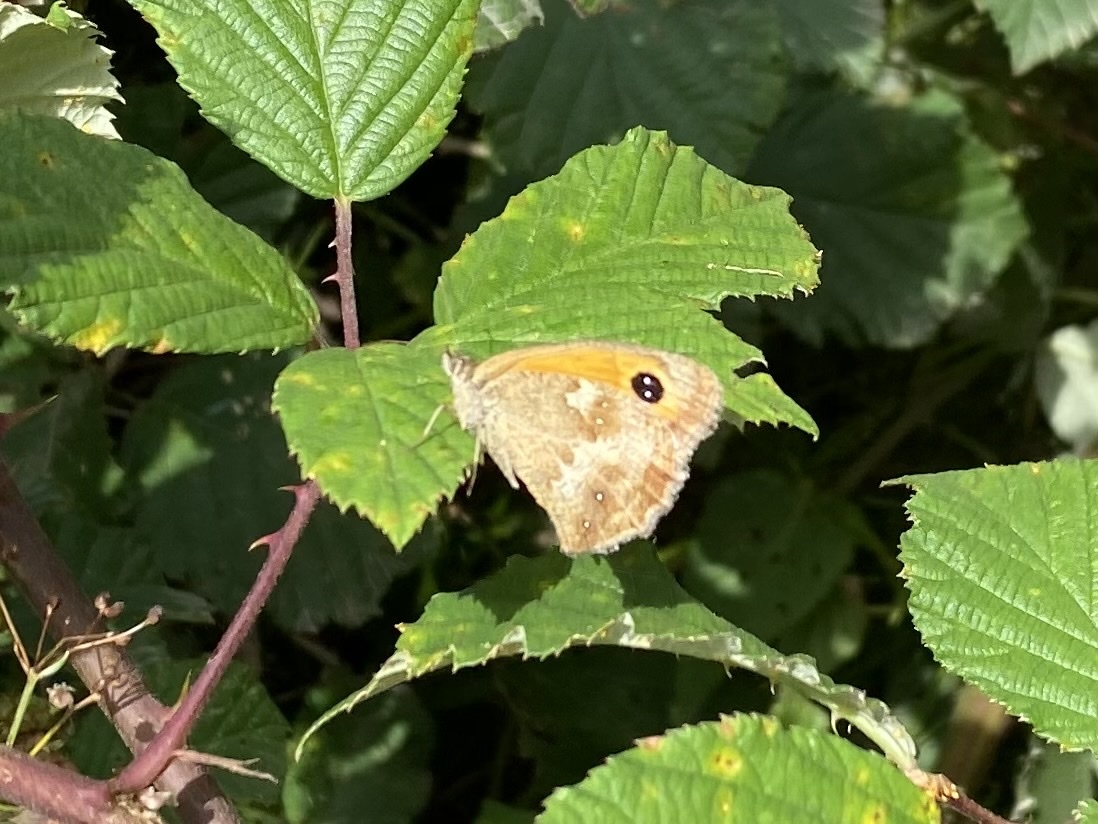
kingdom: Animalia
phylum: Arthropoda
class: Insecta
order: Lepidoptera
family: Nymphalidae
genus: Pyronia
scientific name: Pyronia tithonus
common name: Gatekeeper
